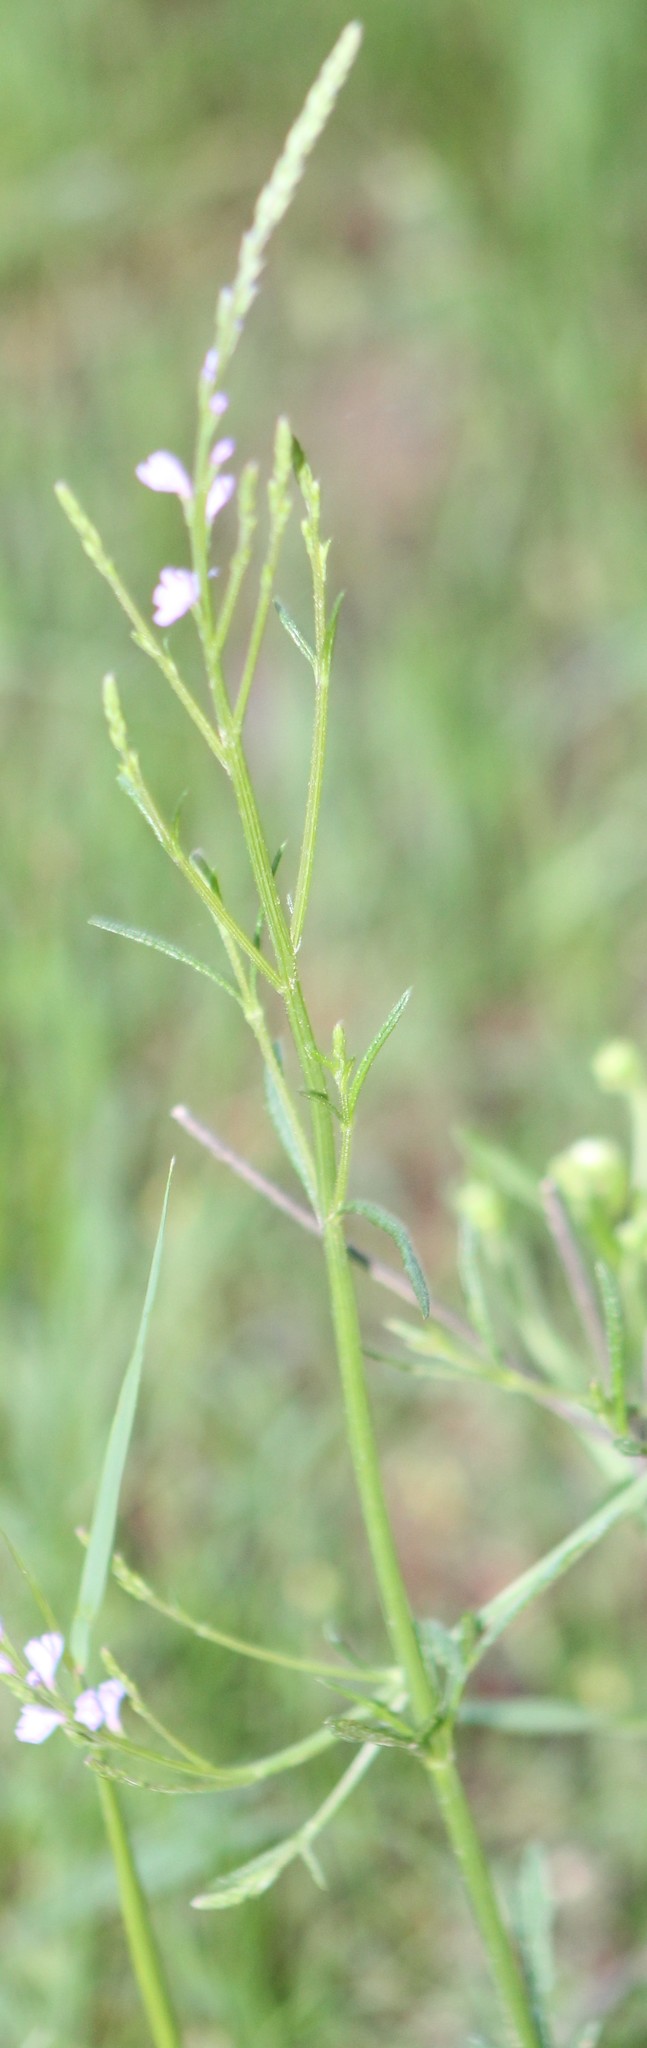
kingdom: Plantae
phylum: Tracheophyta
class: Magnoliopsida
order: Lamiales
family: Verbenaceae
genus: Verbena
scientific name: Verbena halei
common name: Texas vervain
